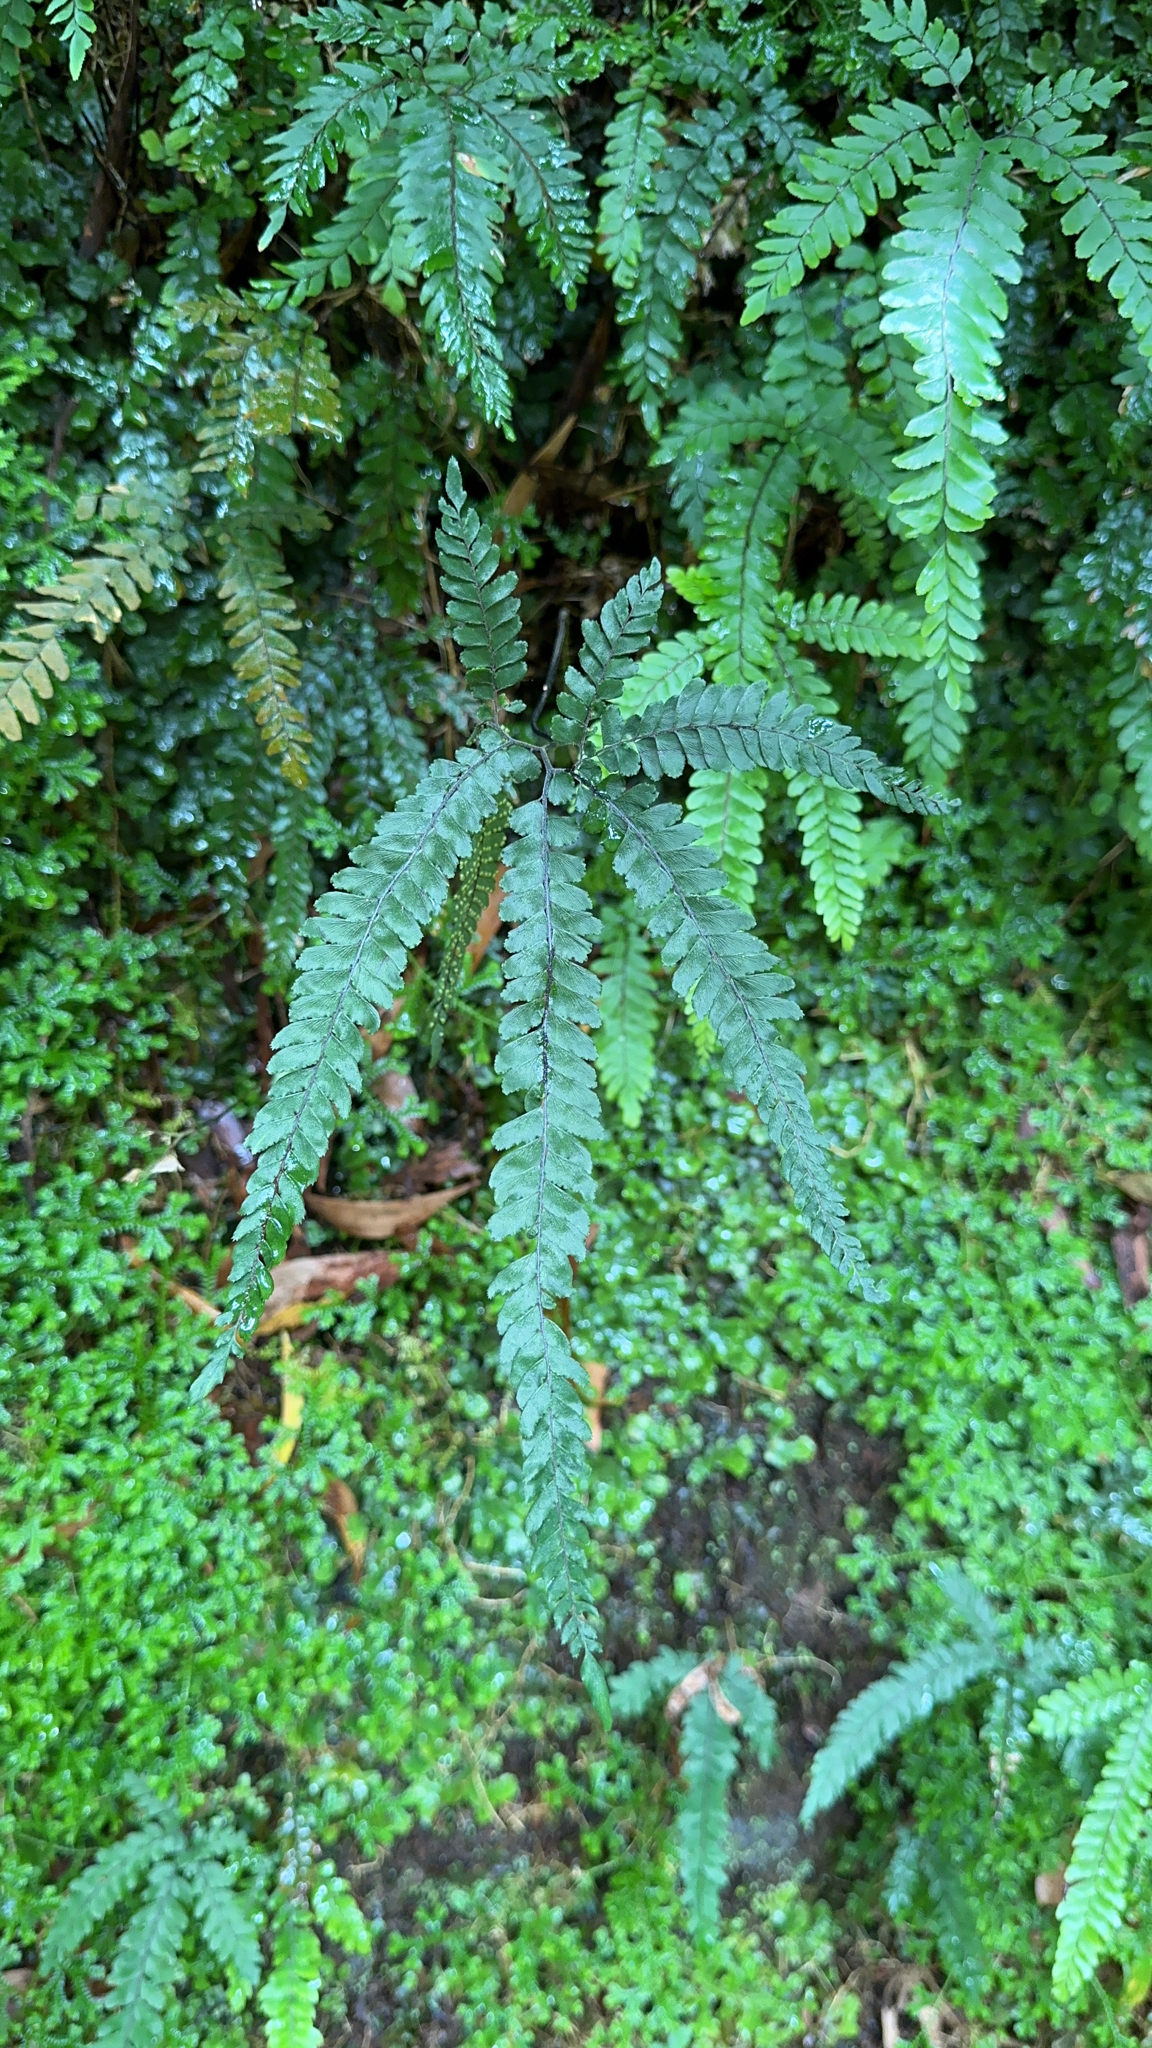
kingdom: Plantae
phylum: Tracheophyta
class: Polypodiopsida
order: Polypodiales
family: Pteridaceae
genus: Adiantum
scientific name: Adiantum hispidulum
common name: Rough maidenhair
